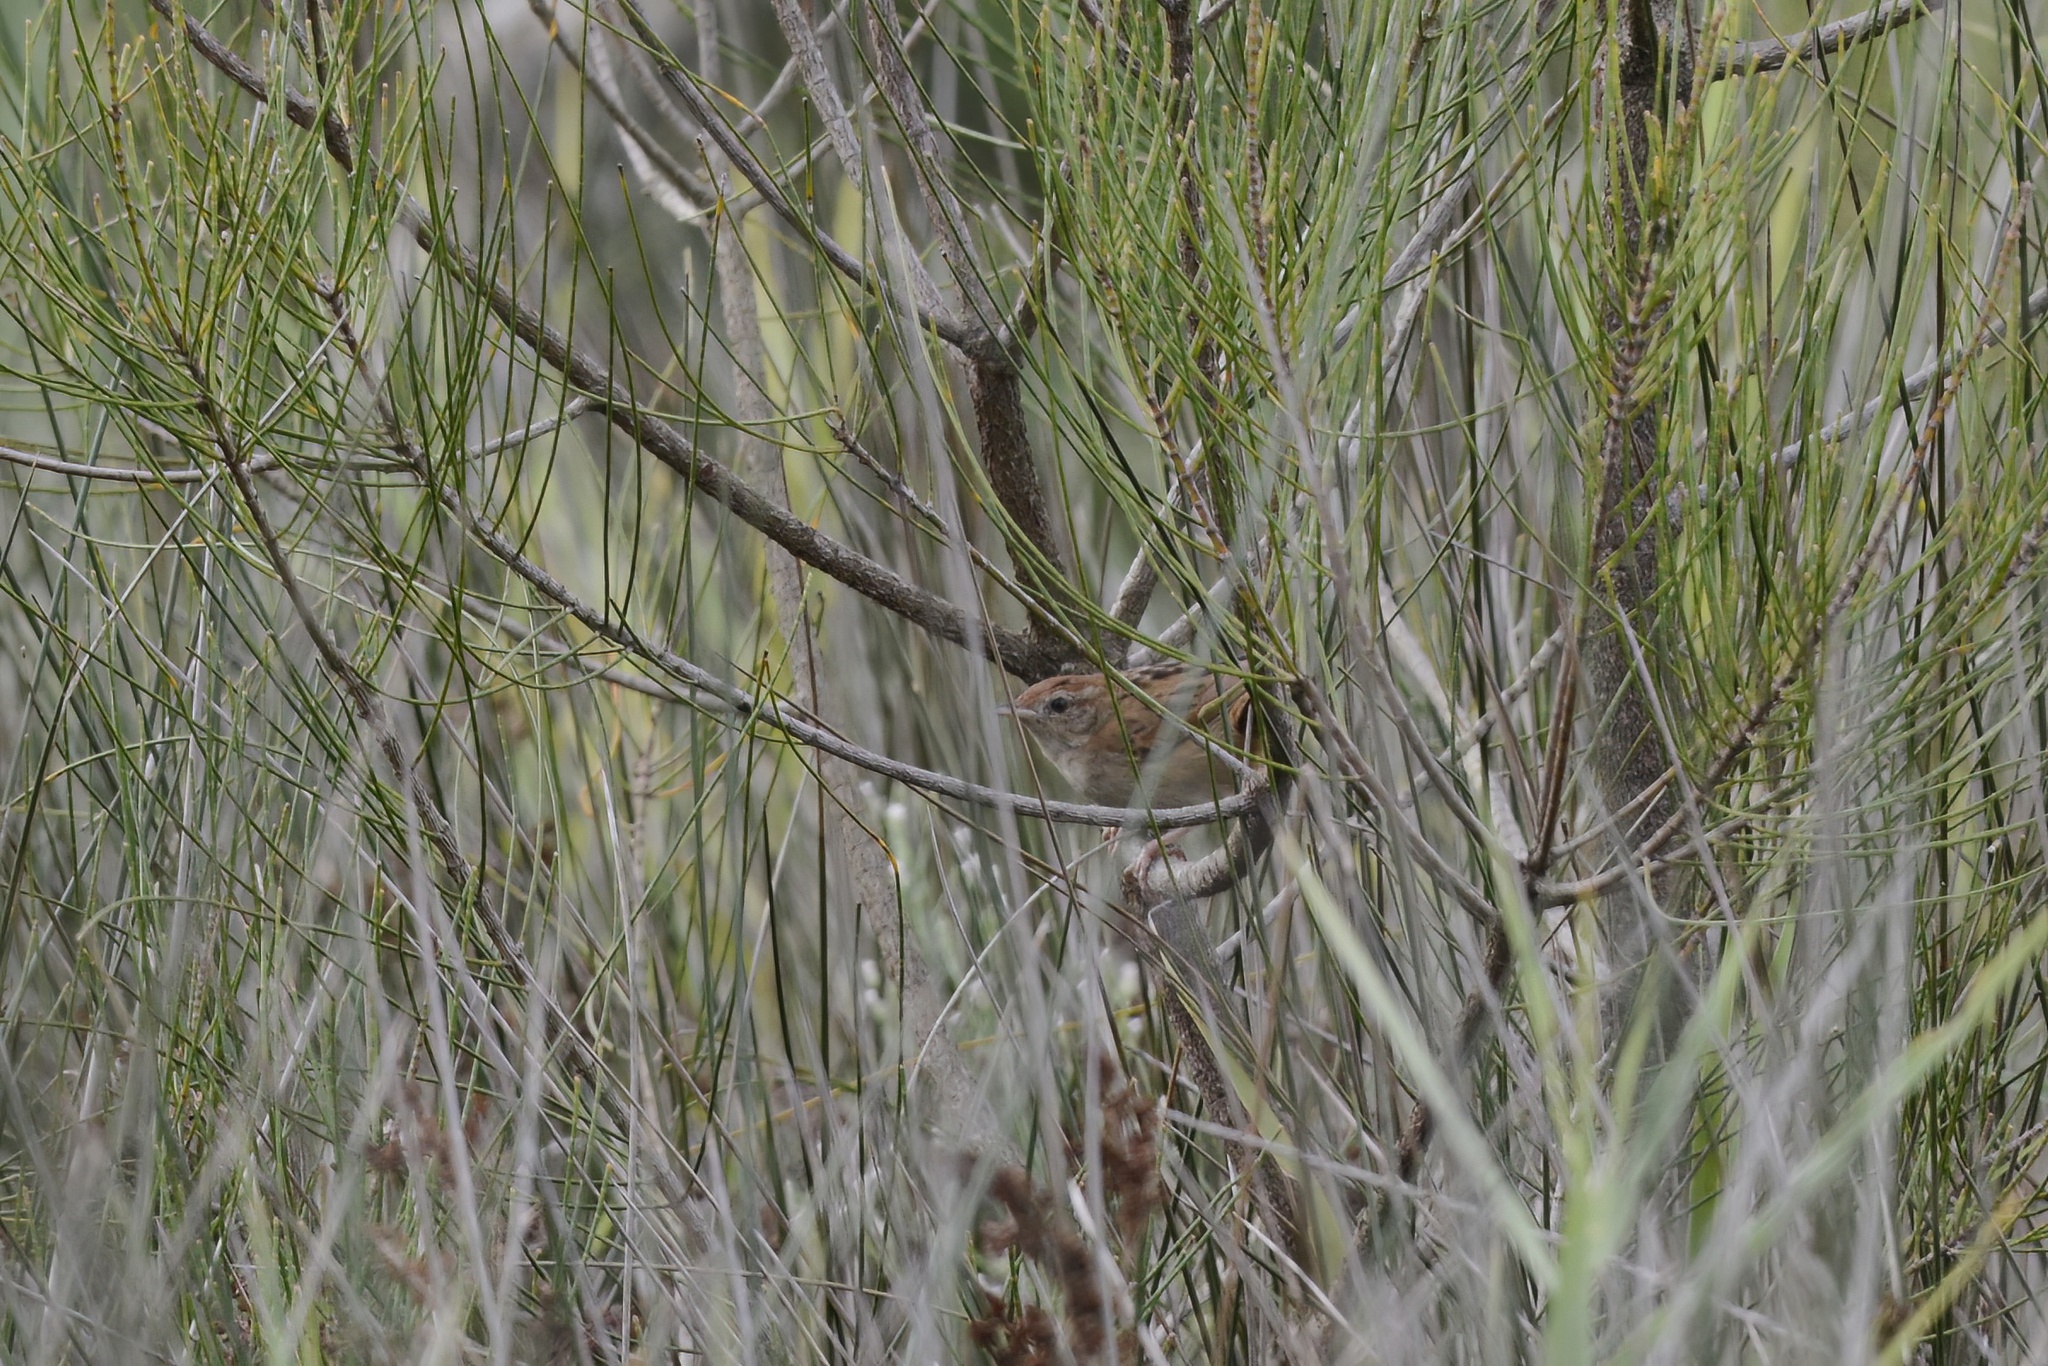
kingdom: Animalia
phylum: Chordata
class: Aves
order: Passeriformes
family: Locustellidae
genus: Megalurus
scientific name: Megalurus timoriensis
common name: Tawny grassbird
